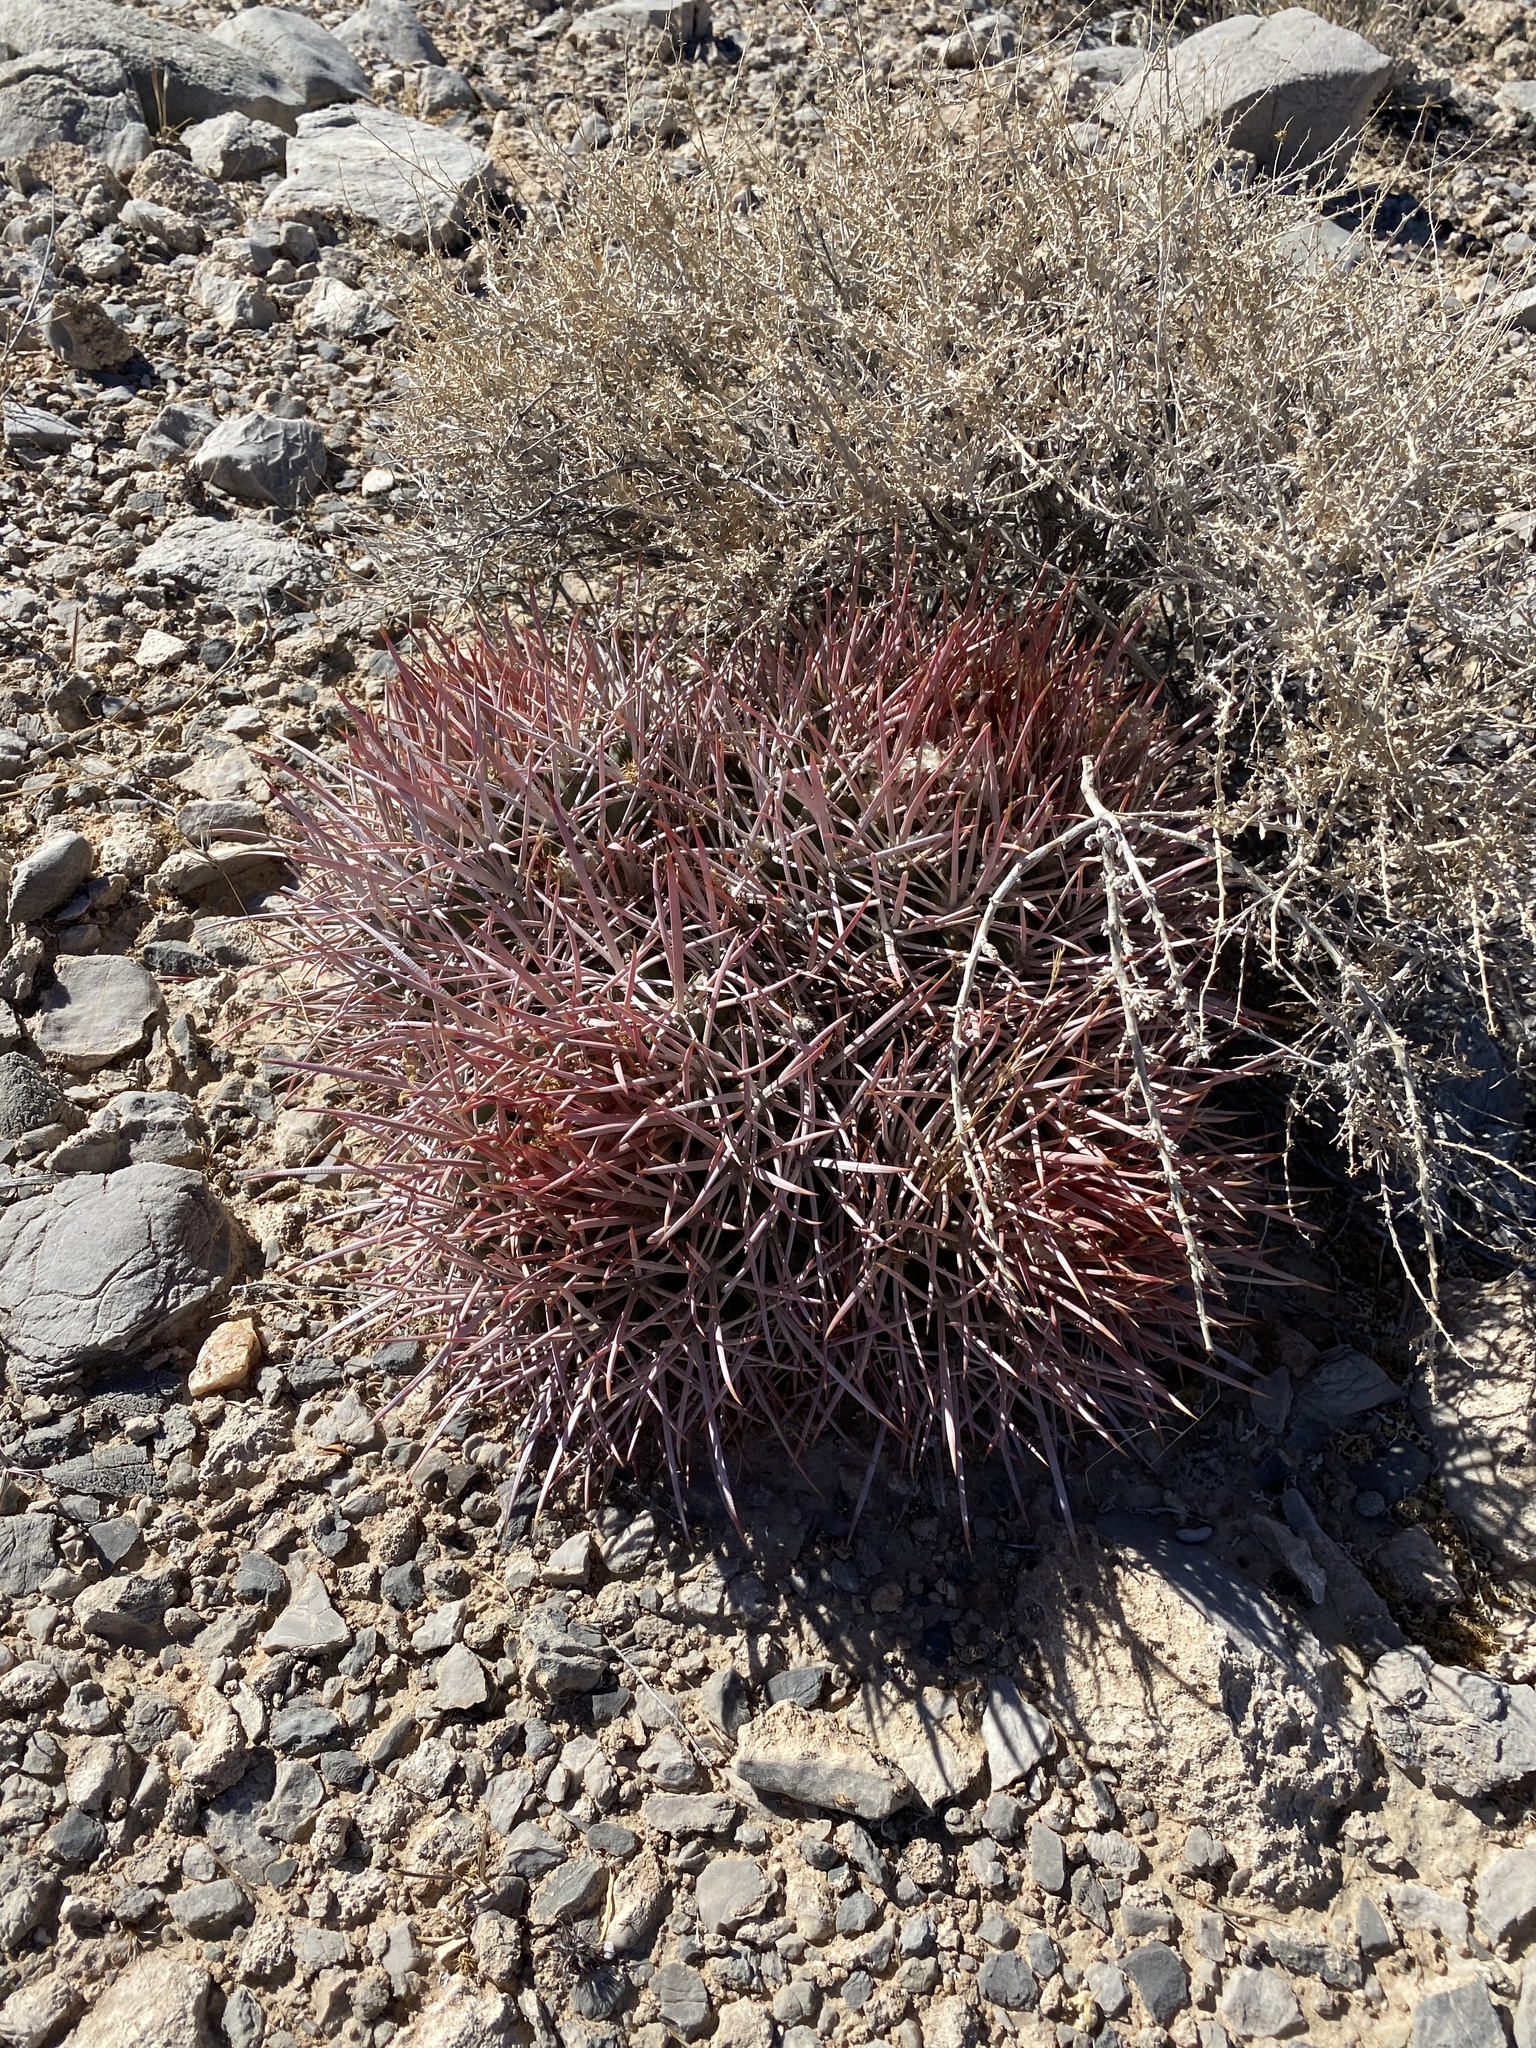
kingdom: Plantae
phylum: Tracheophyta
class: Magnoliopsida
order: Caryophyllales
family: Cactaceae
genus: Echinocactus
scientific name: Echinocactus polycephalus
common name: Cottontop cactus
